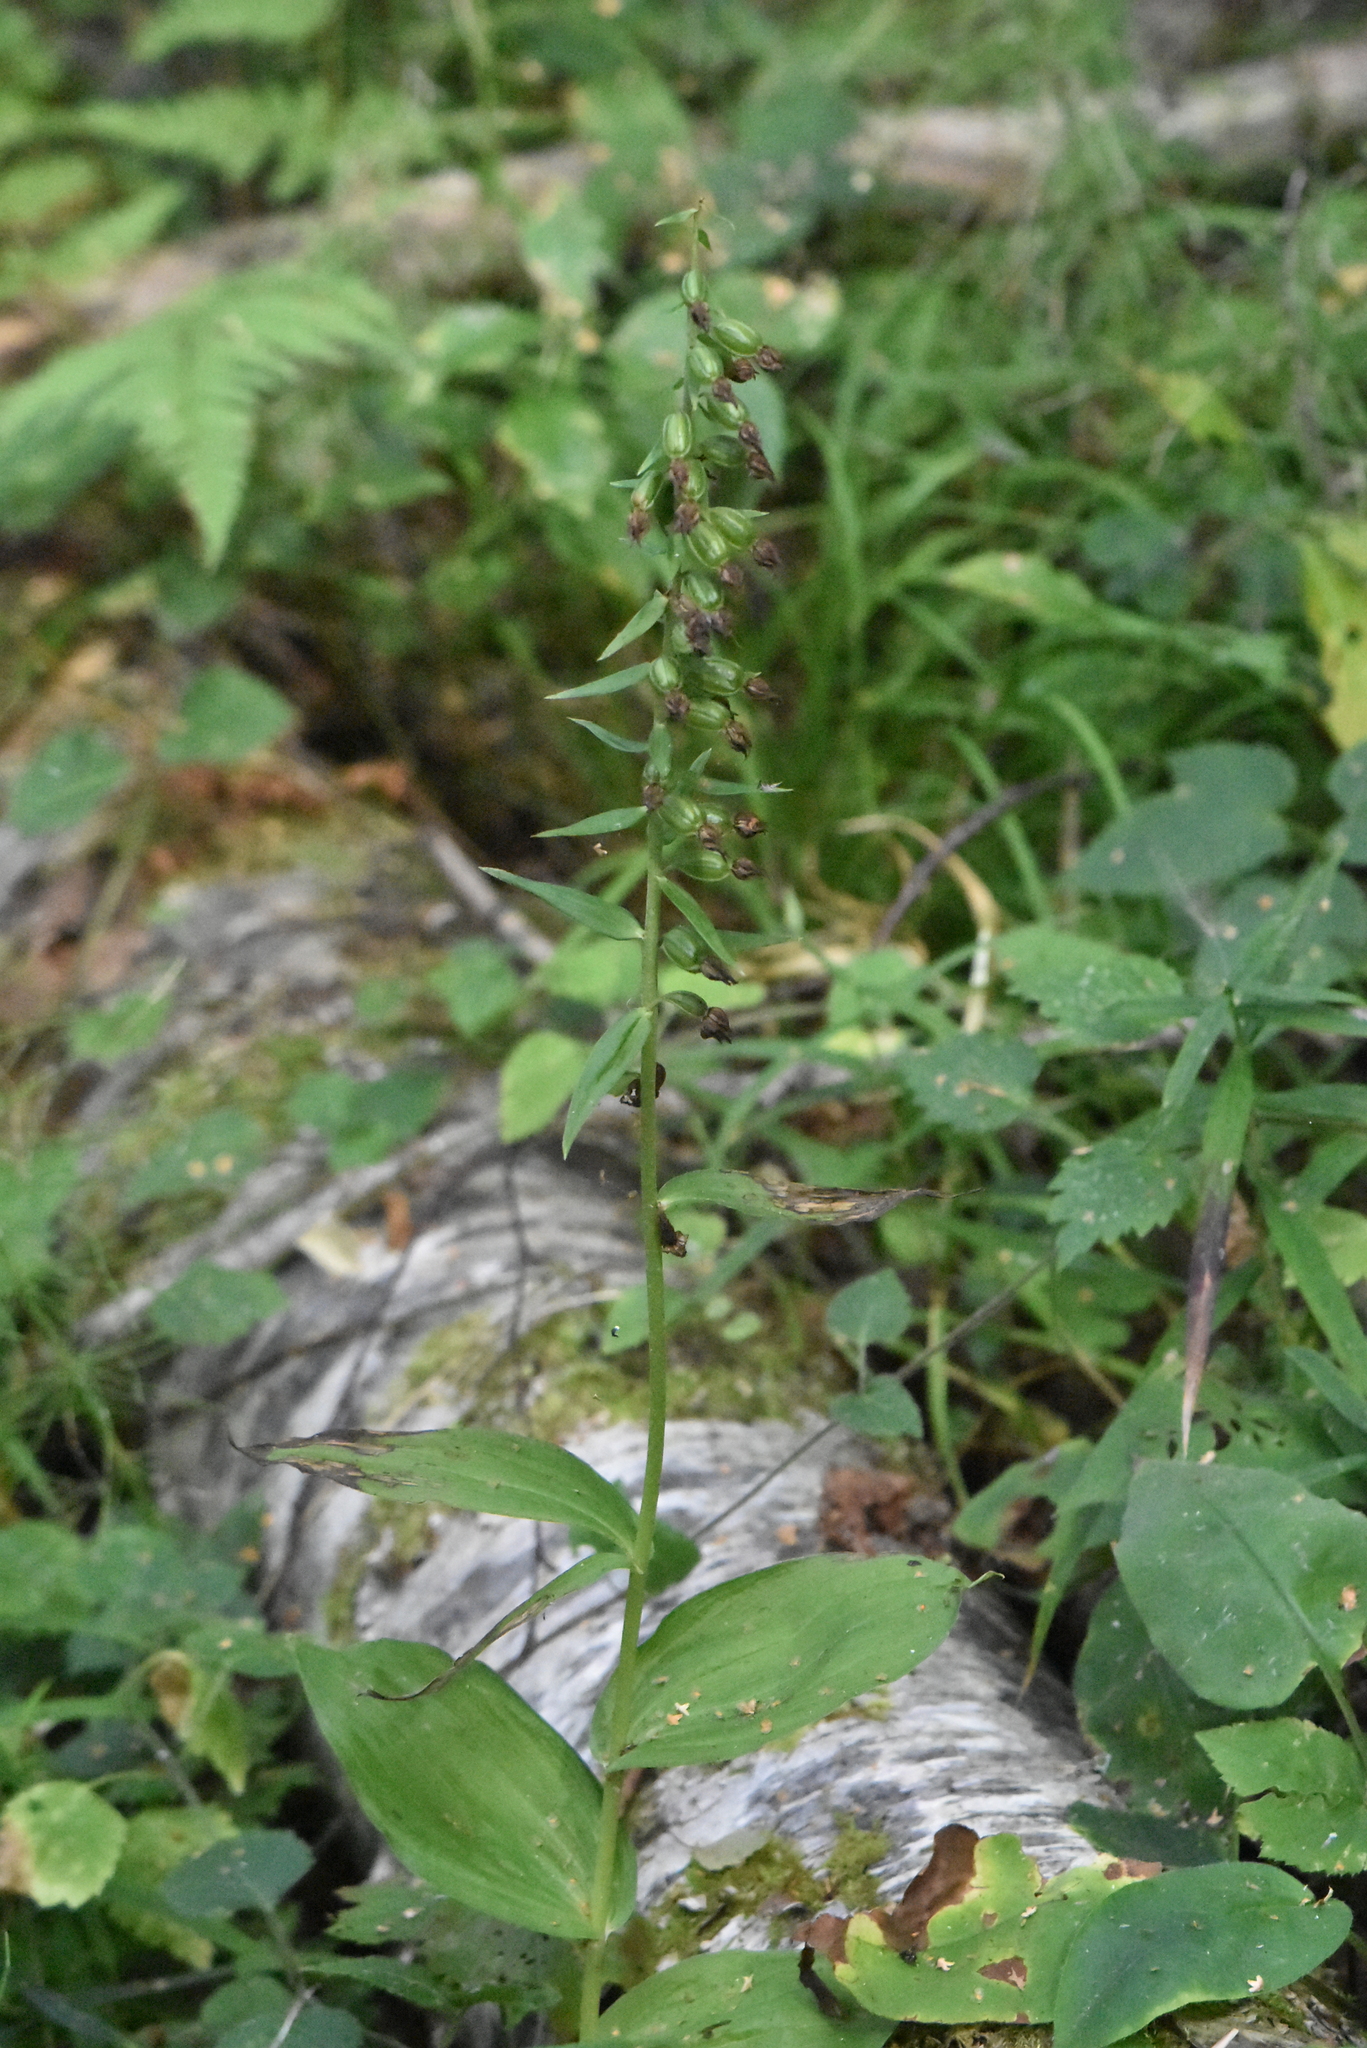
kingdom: Plantae
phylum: Tracheophyta
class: Liliopsida
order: Asparagales
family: Orchidaceae
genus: Epipactis
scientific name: Epipactis helleborine
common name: Broad-leaved helleborine
